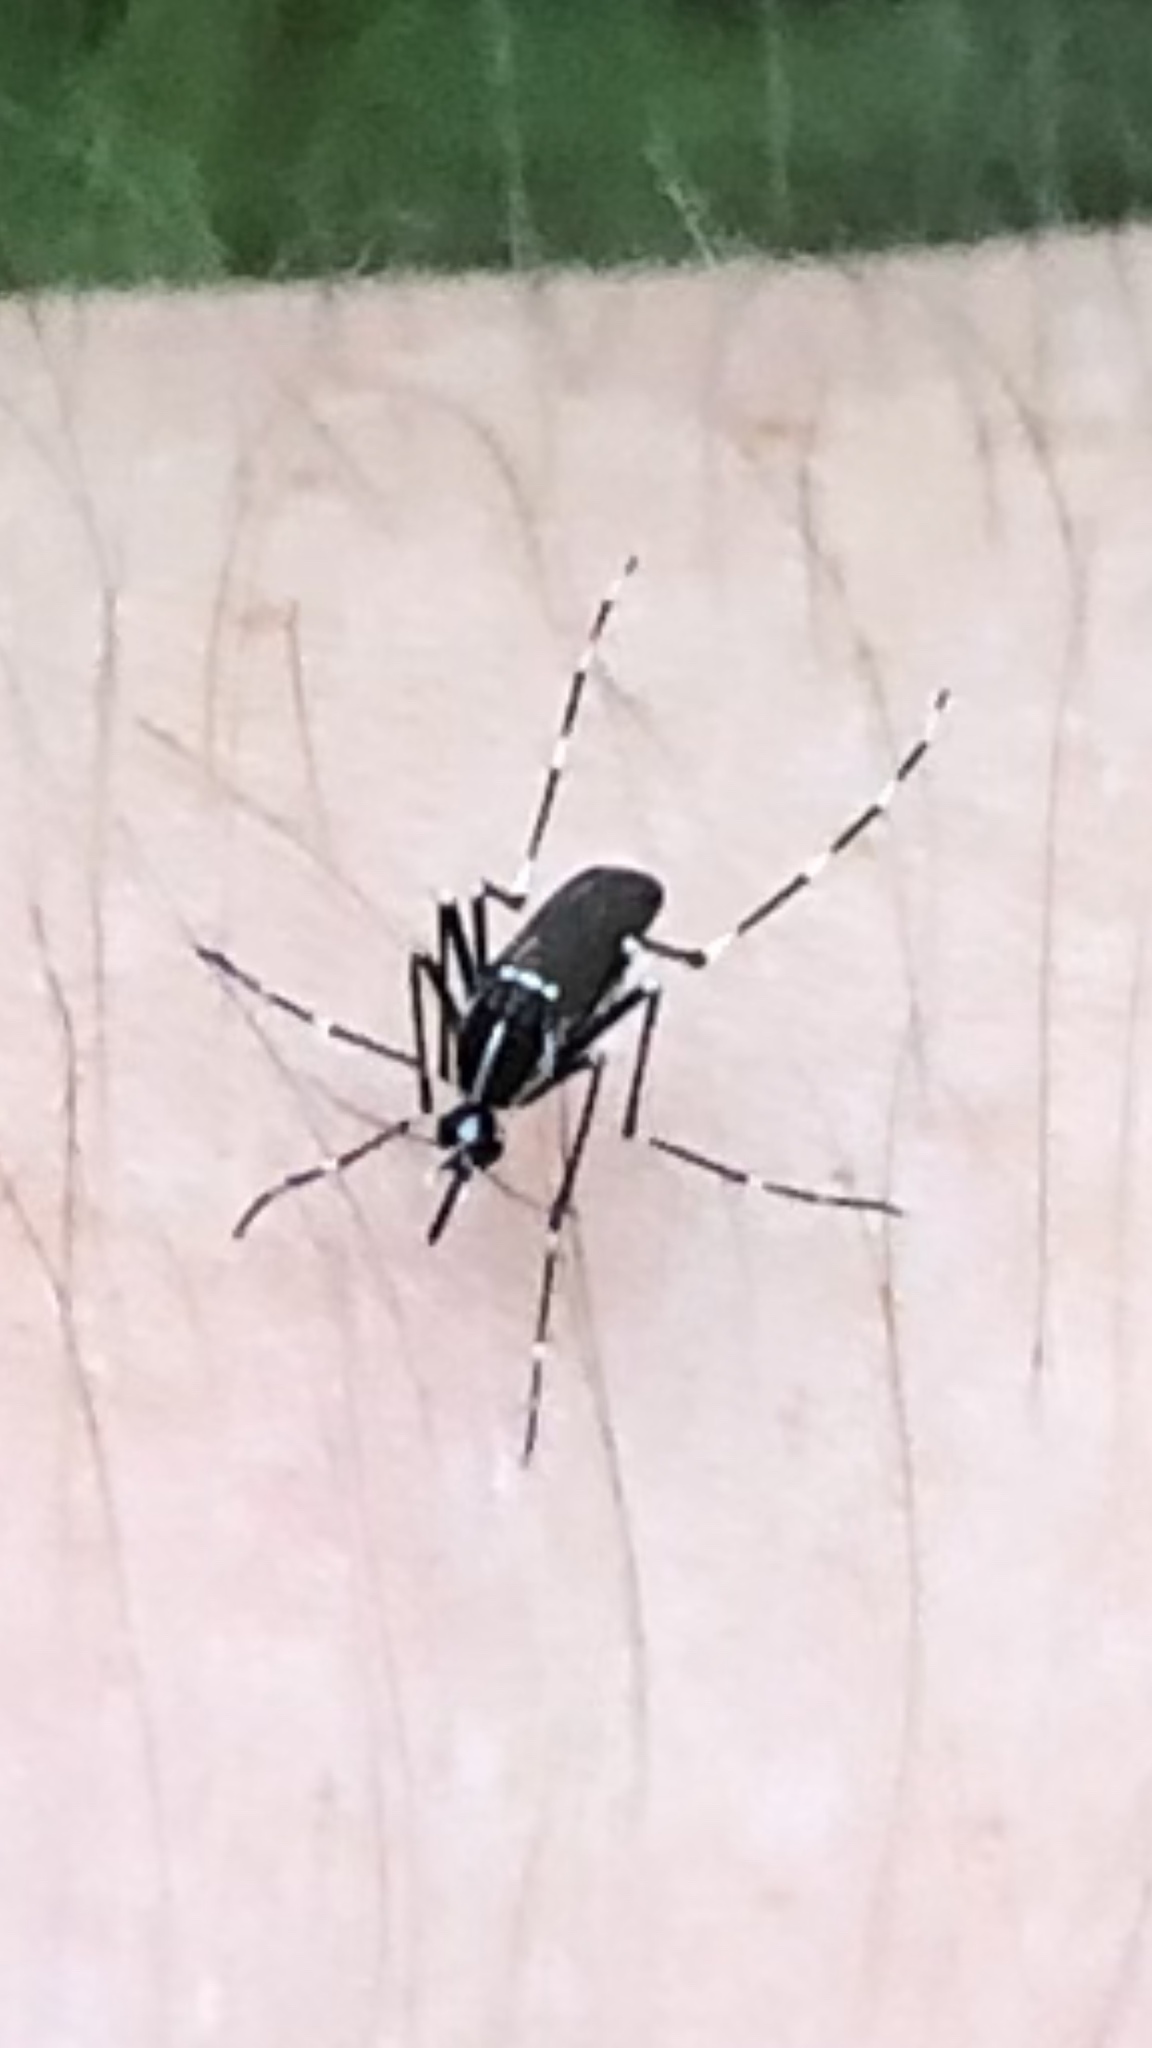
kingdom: Animalia
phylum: Arthropoda
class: Insecta
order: Diptera
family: Culicidae
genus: Aedes
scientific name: Aedes albopictus
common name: Tiger mosquito
